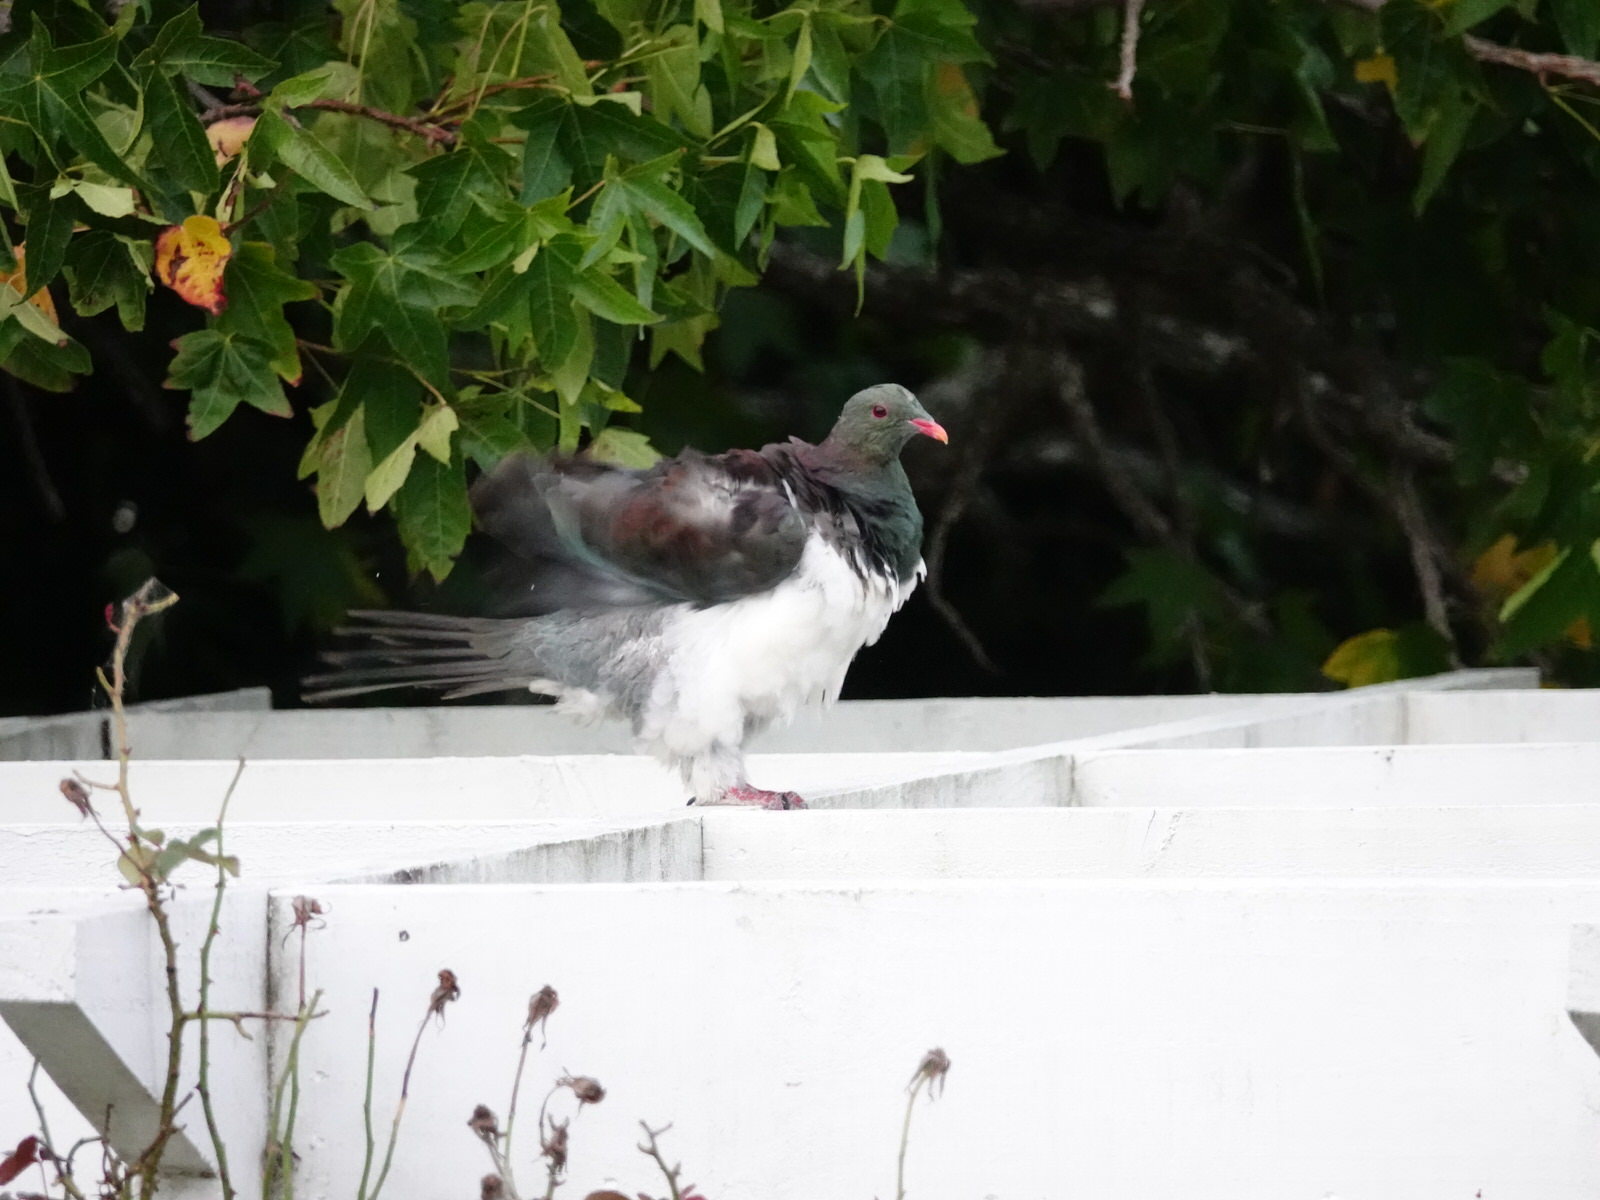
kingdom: Animalia
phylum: Chordata
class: Aves
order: Columbiformes
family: Columbidae
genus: Hemiphaga
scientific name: Hemiphaga novaeseelandiae
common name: New zealand pigeon
